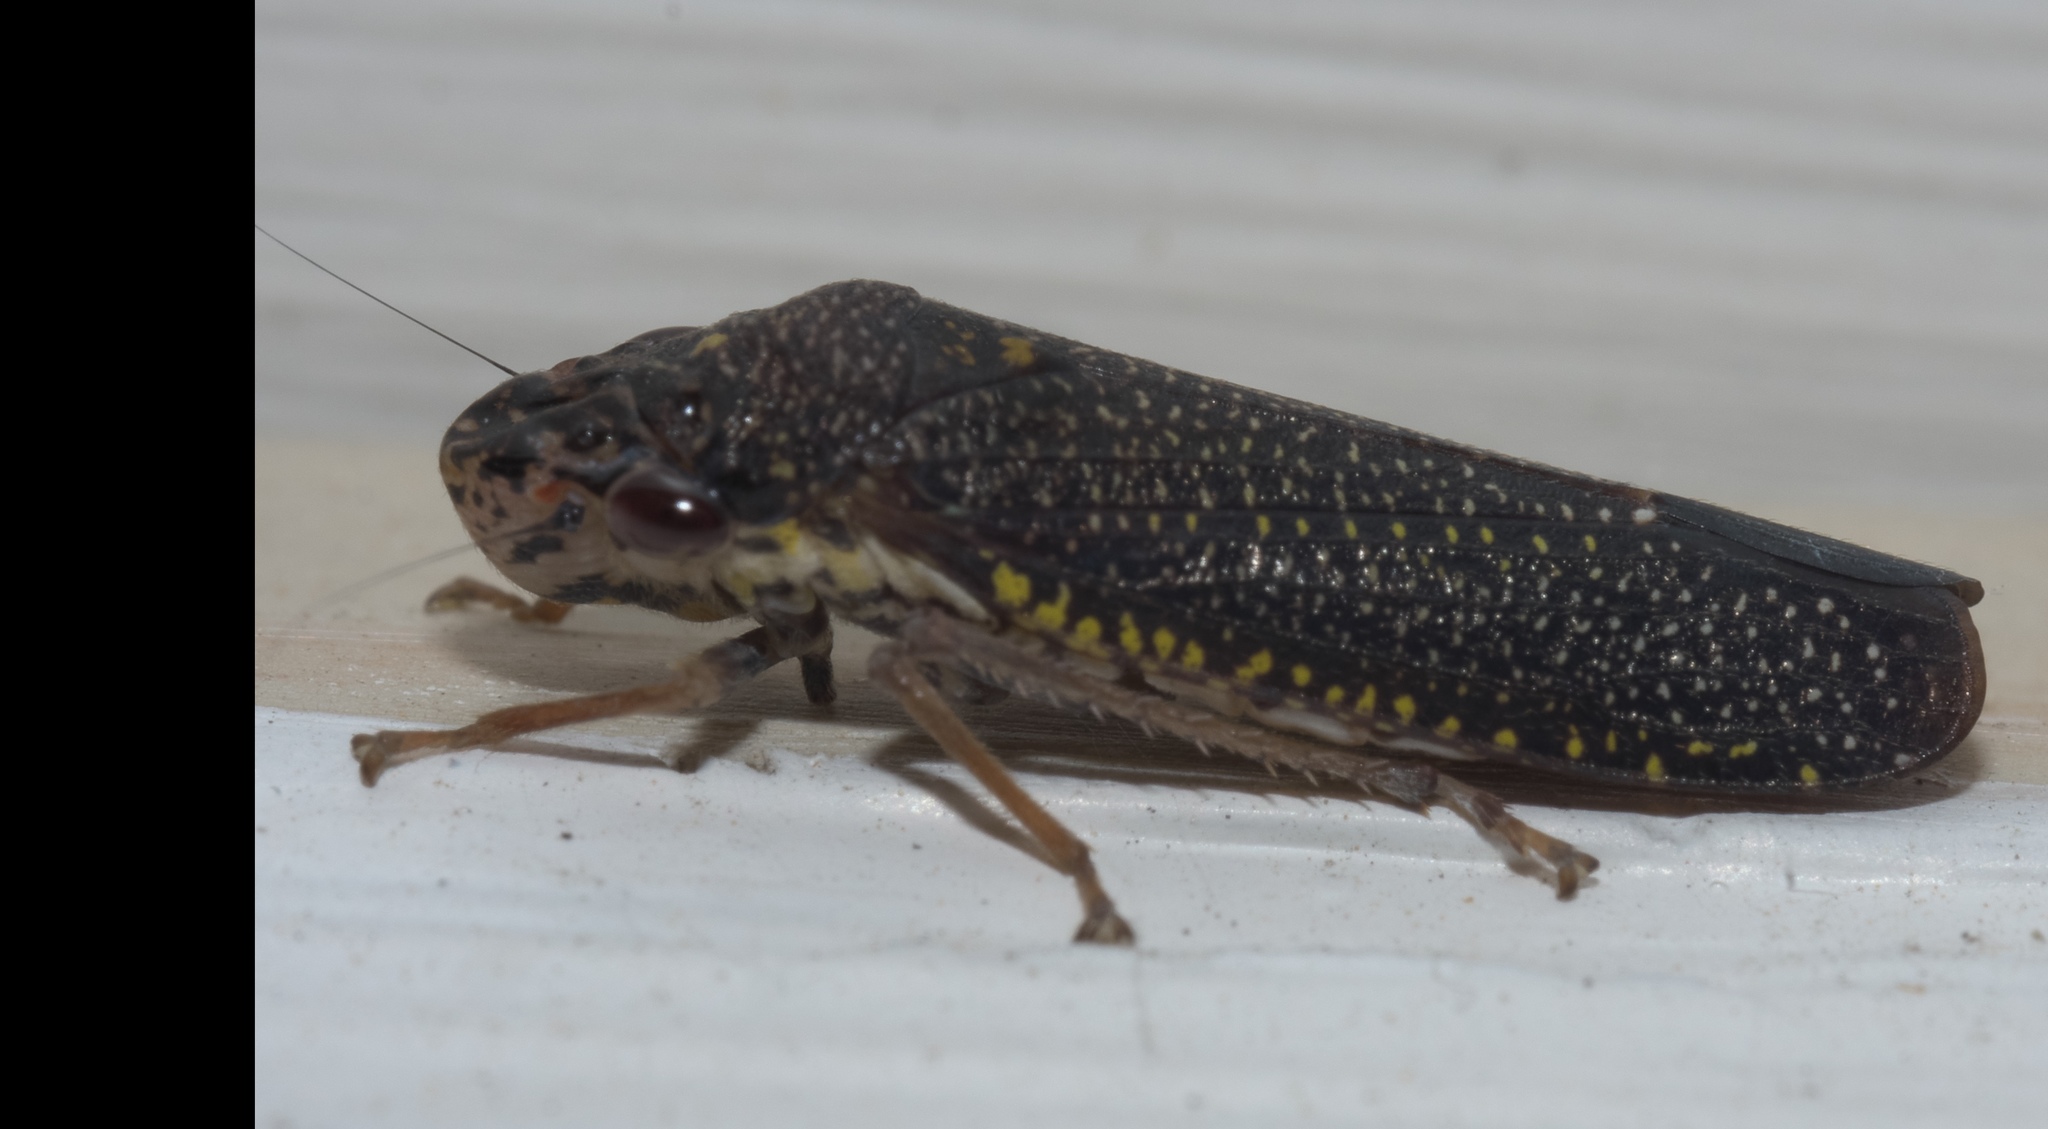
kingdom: Animalia
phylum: Arthropoda
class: Insecta
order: Hemiptera
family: Cicadellidae
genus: Paraulacizes
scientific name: Paraulacizes irrorata
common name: Speckled sharpshooter
